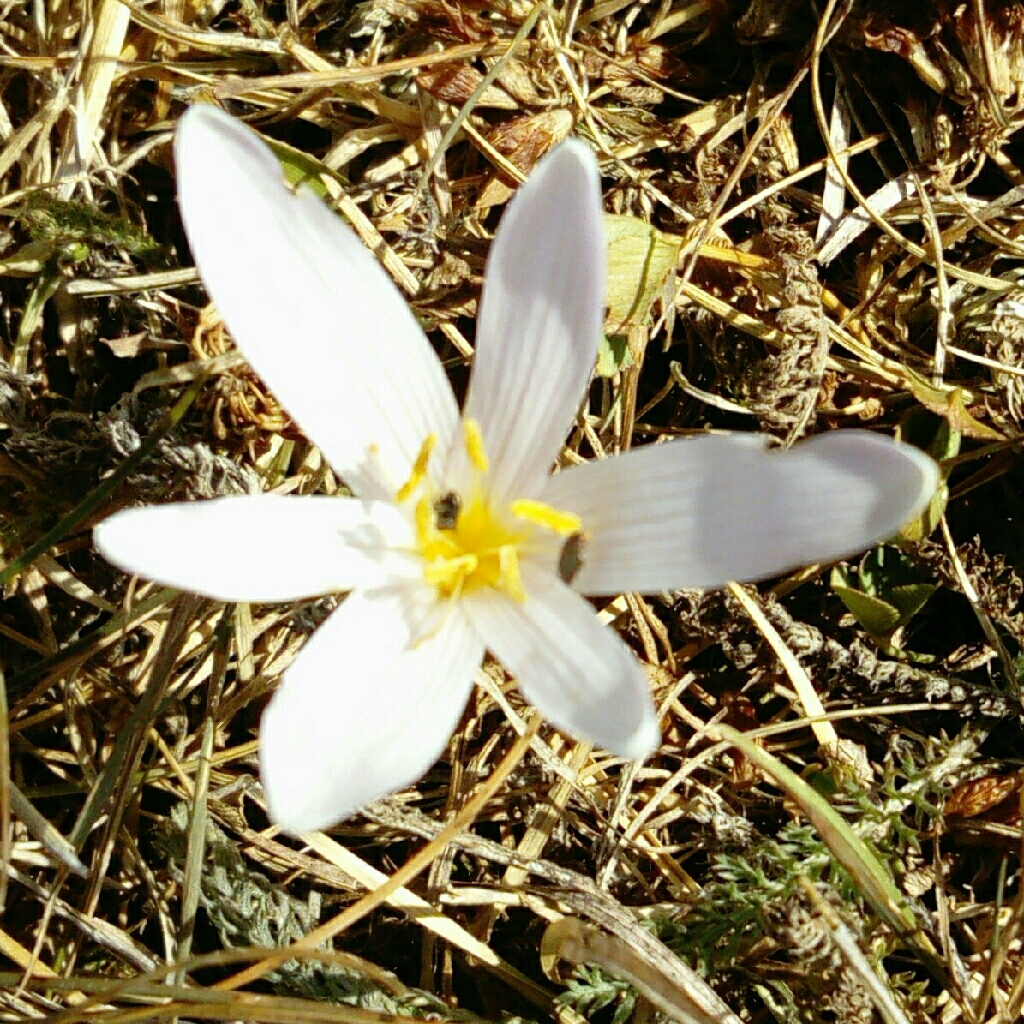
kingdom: Plantae
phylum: Tracheophyta
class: Liliopsida
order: Liliales
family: Colchicaceae
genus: Colchicum
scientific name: Colchicum alpinum
